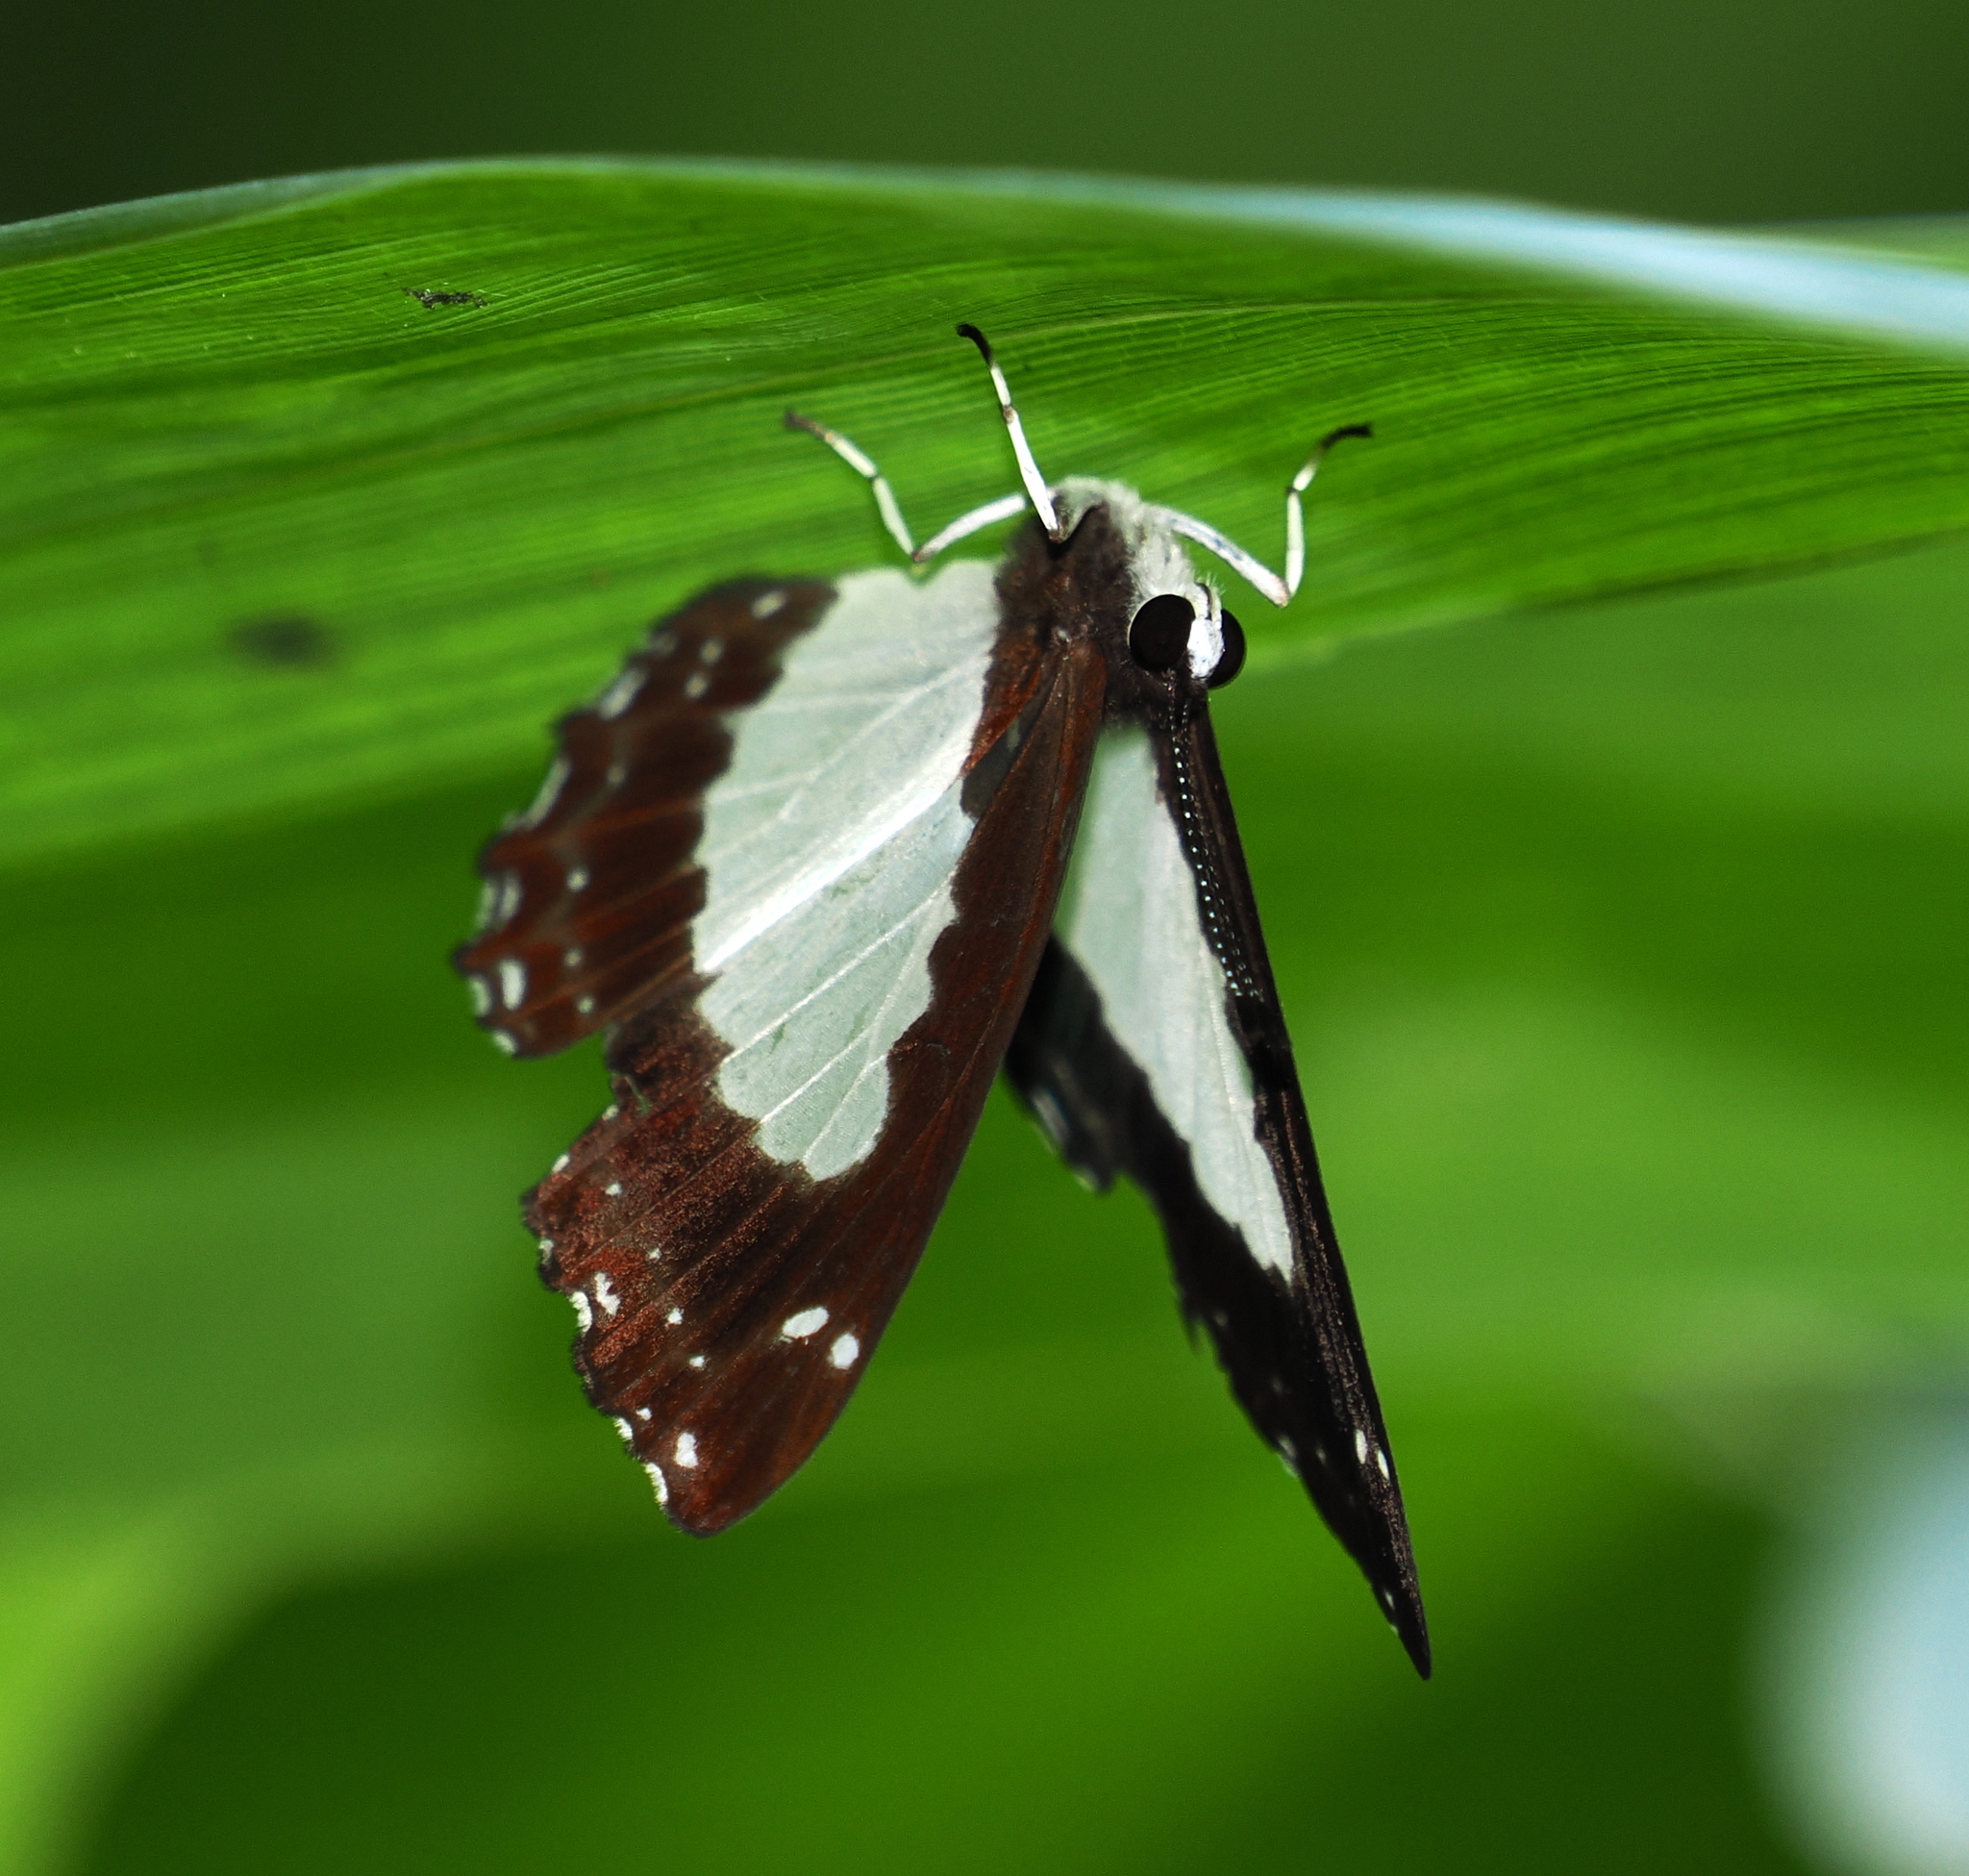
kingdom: Animalia
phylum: Arthropoda
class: Insecta
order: Lepidoptera
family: Riodinidae
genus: Stiboges
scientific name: Stiboges nymphidia
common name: Columbine
